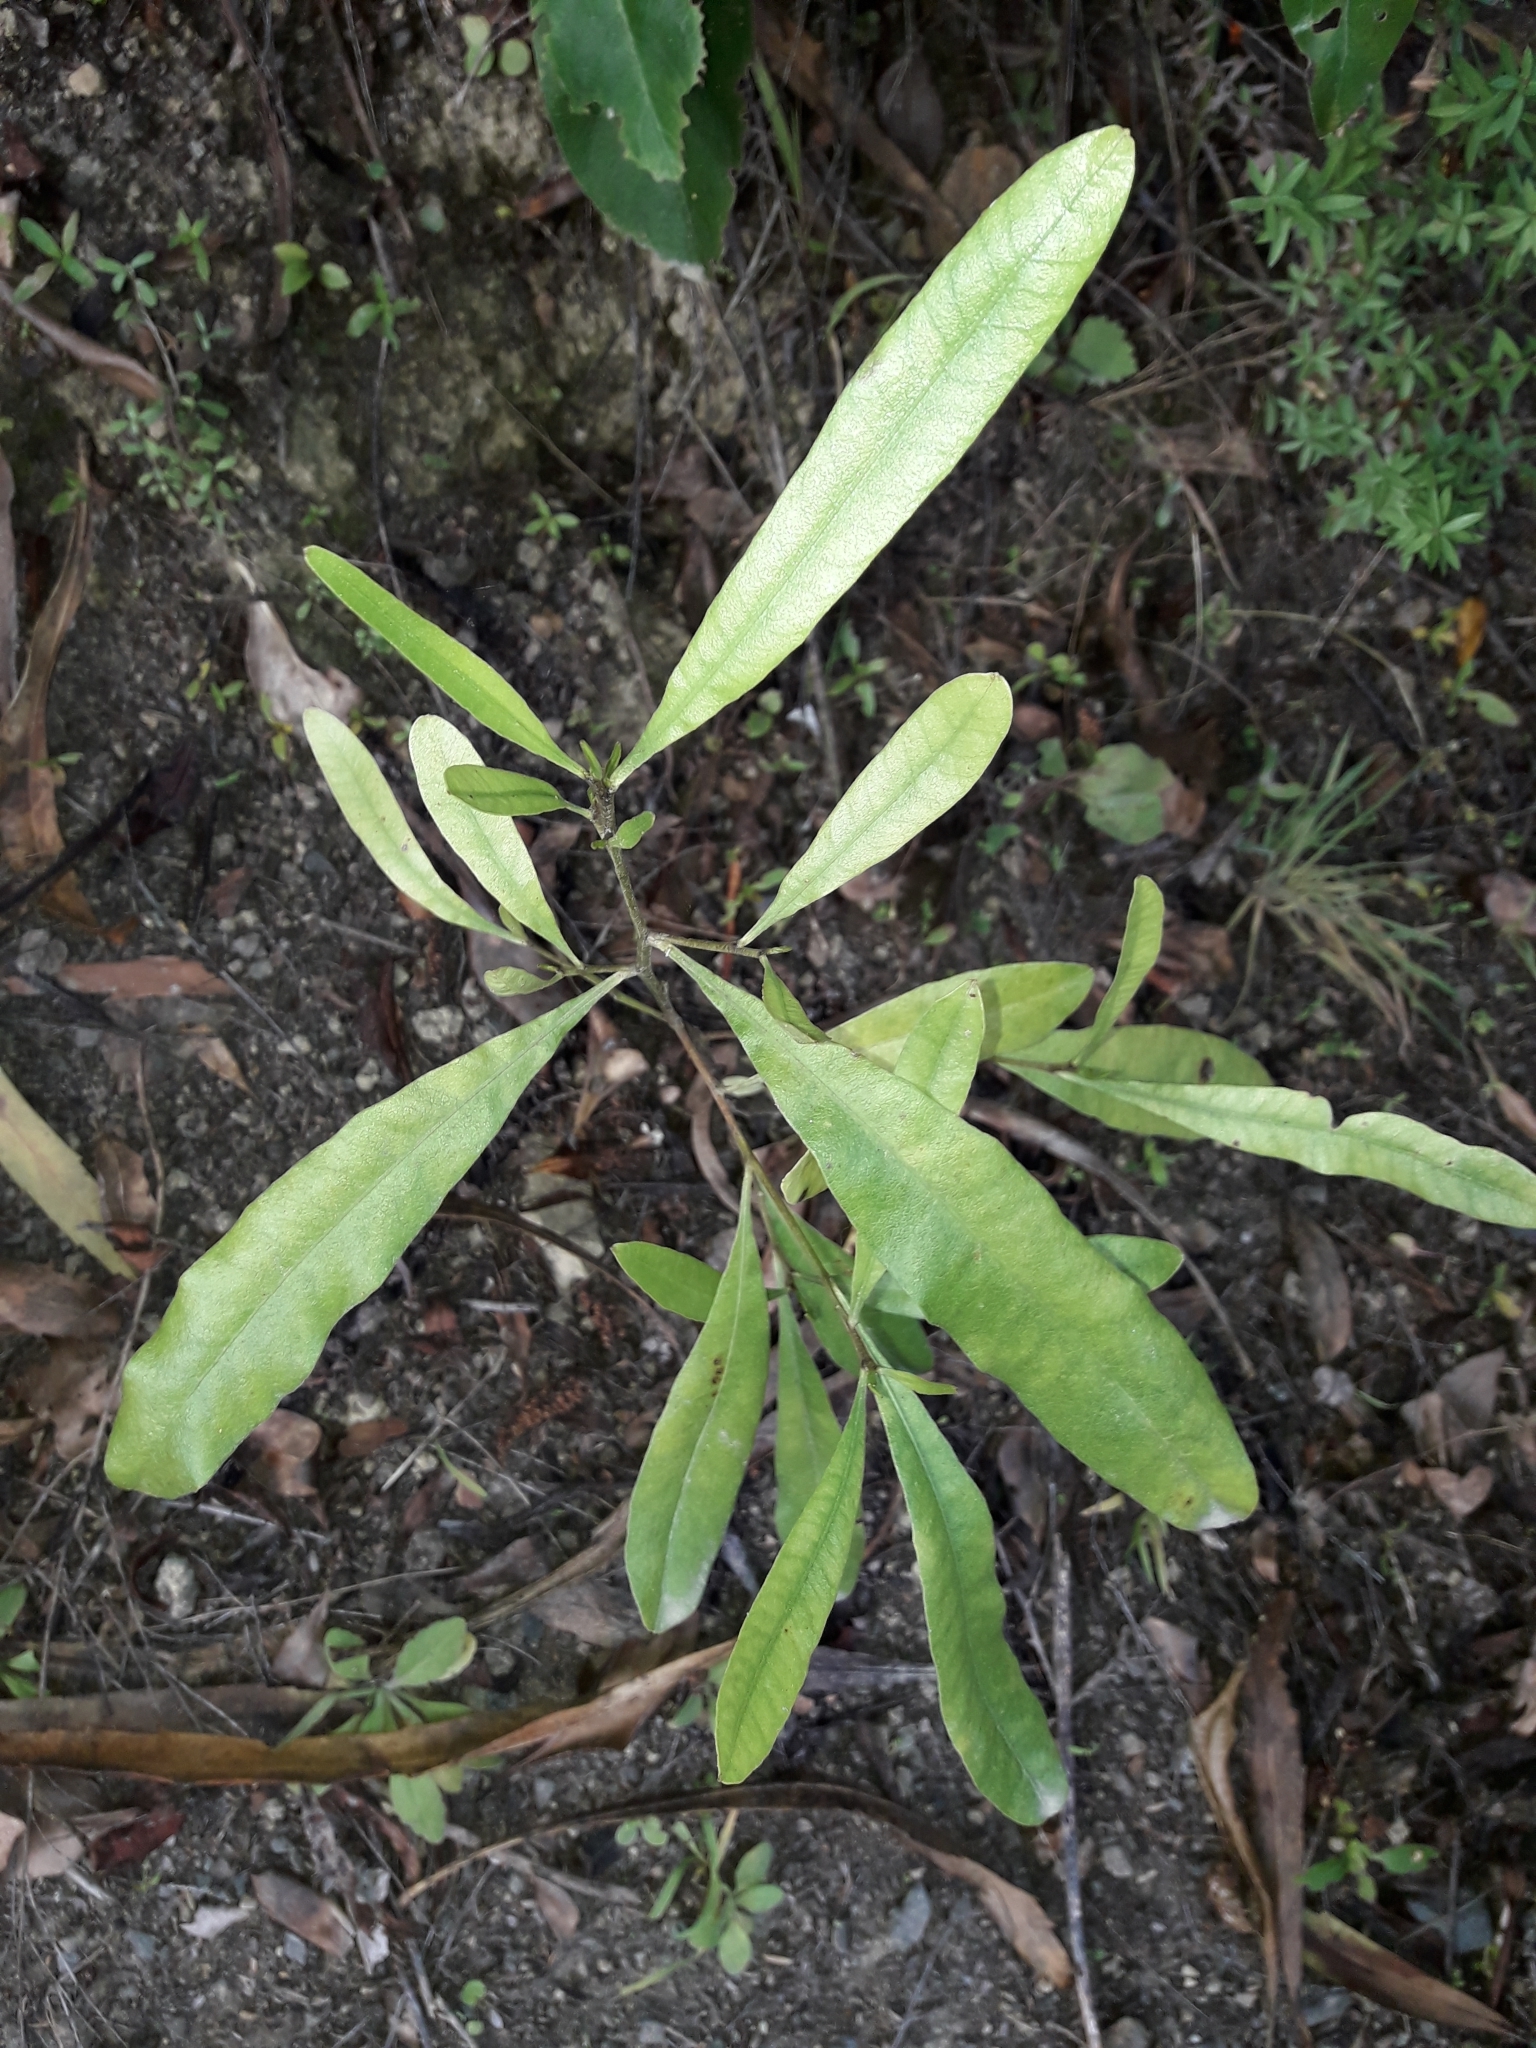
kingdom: Plantae
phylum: Tracheophyta
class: Magnoliopsida
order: Sapindales
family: Sapindaceae
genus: Dodonaea
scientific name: Dodonaea viscosa
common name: Hopbush
